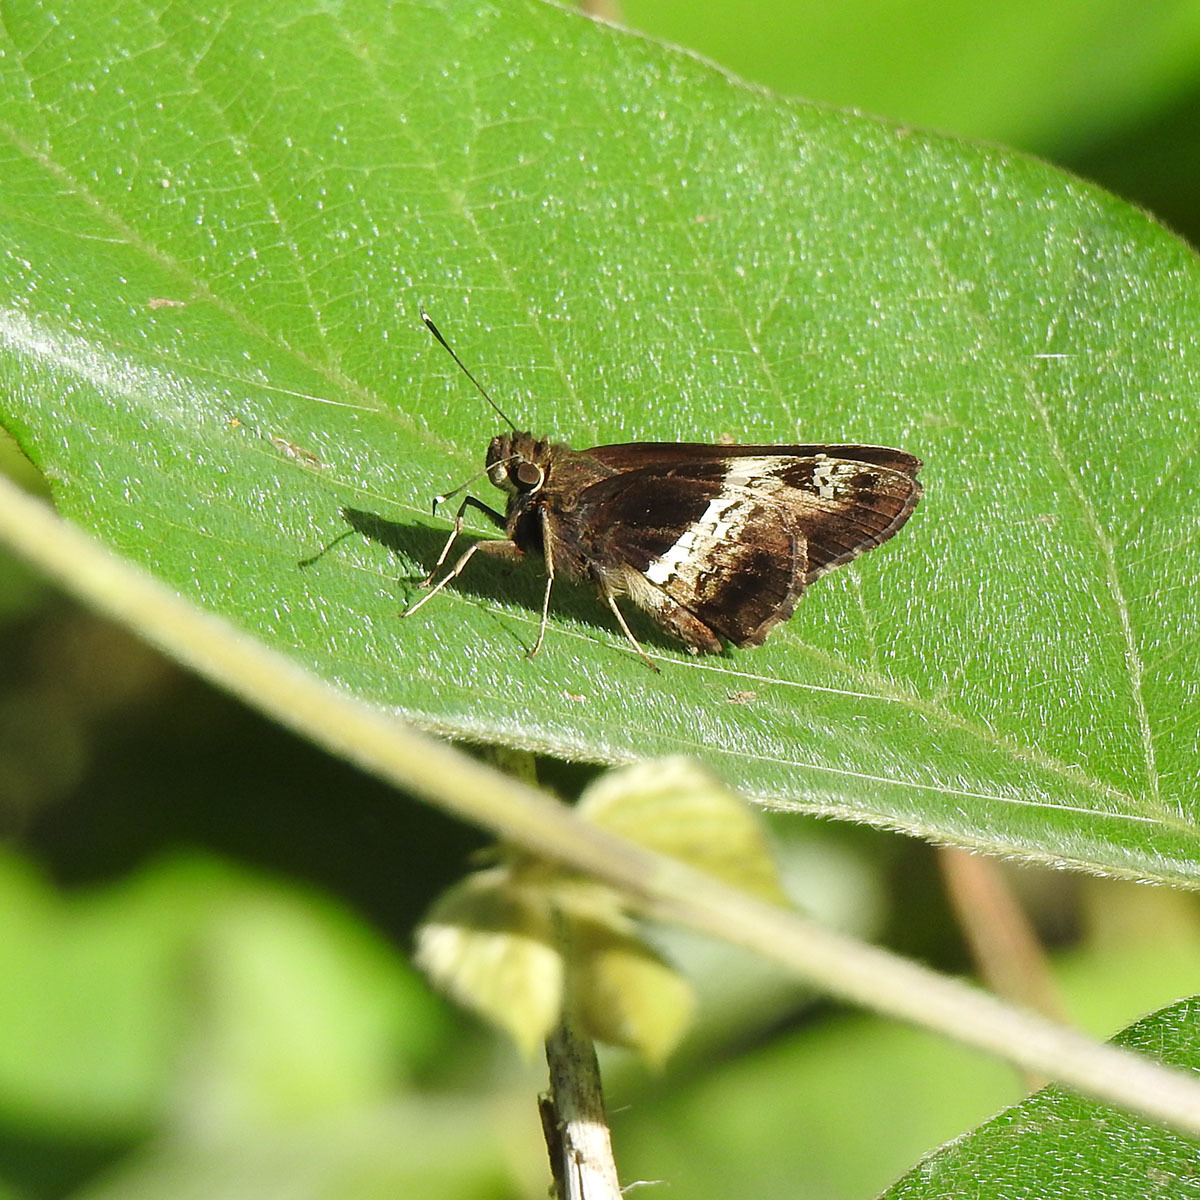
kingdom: Animalia
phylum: Arthropoda
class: Insecta
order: Lepidoptera
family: Hesperiidae
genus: Hyarotis
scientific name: Hyarotis adrastus
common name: Tree flitter
